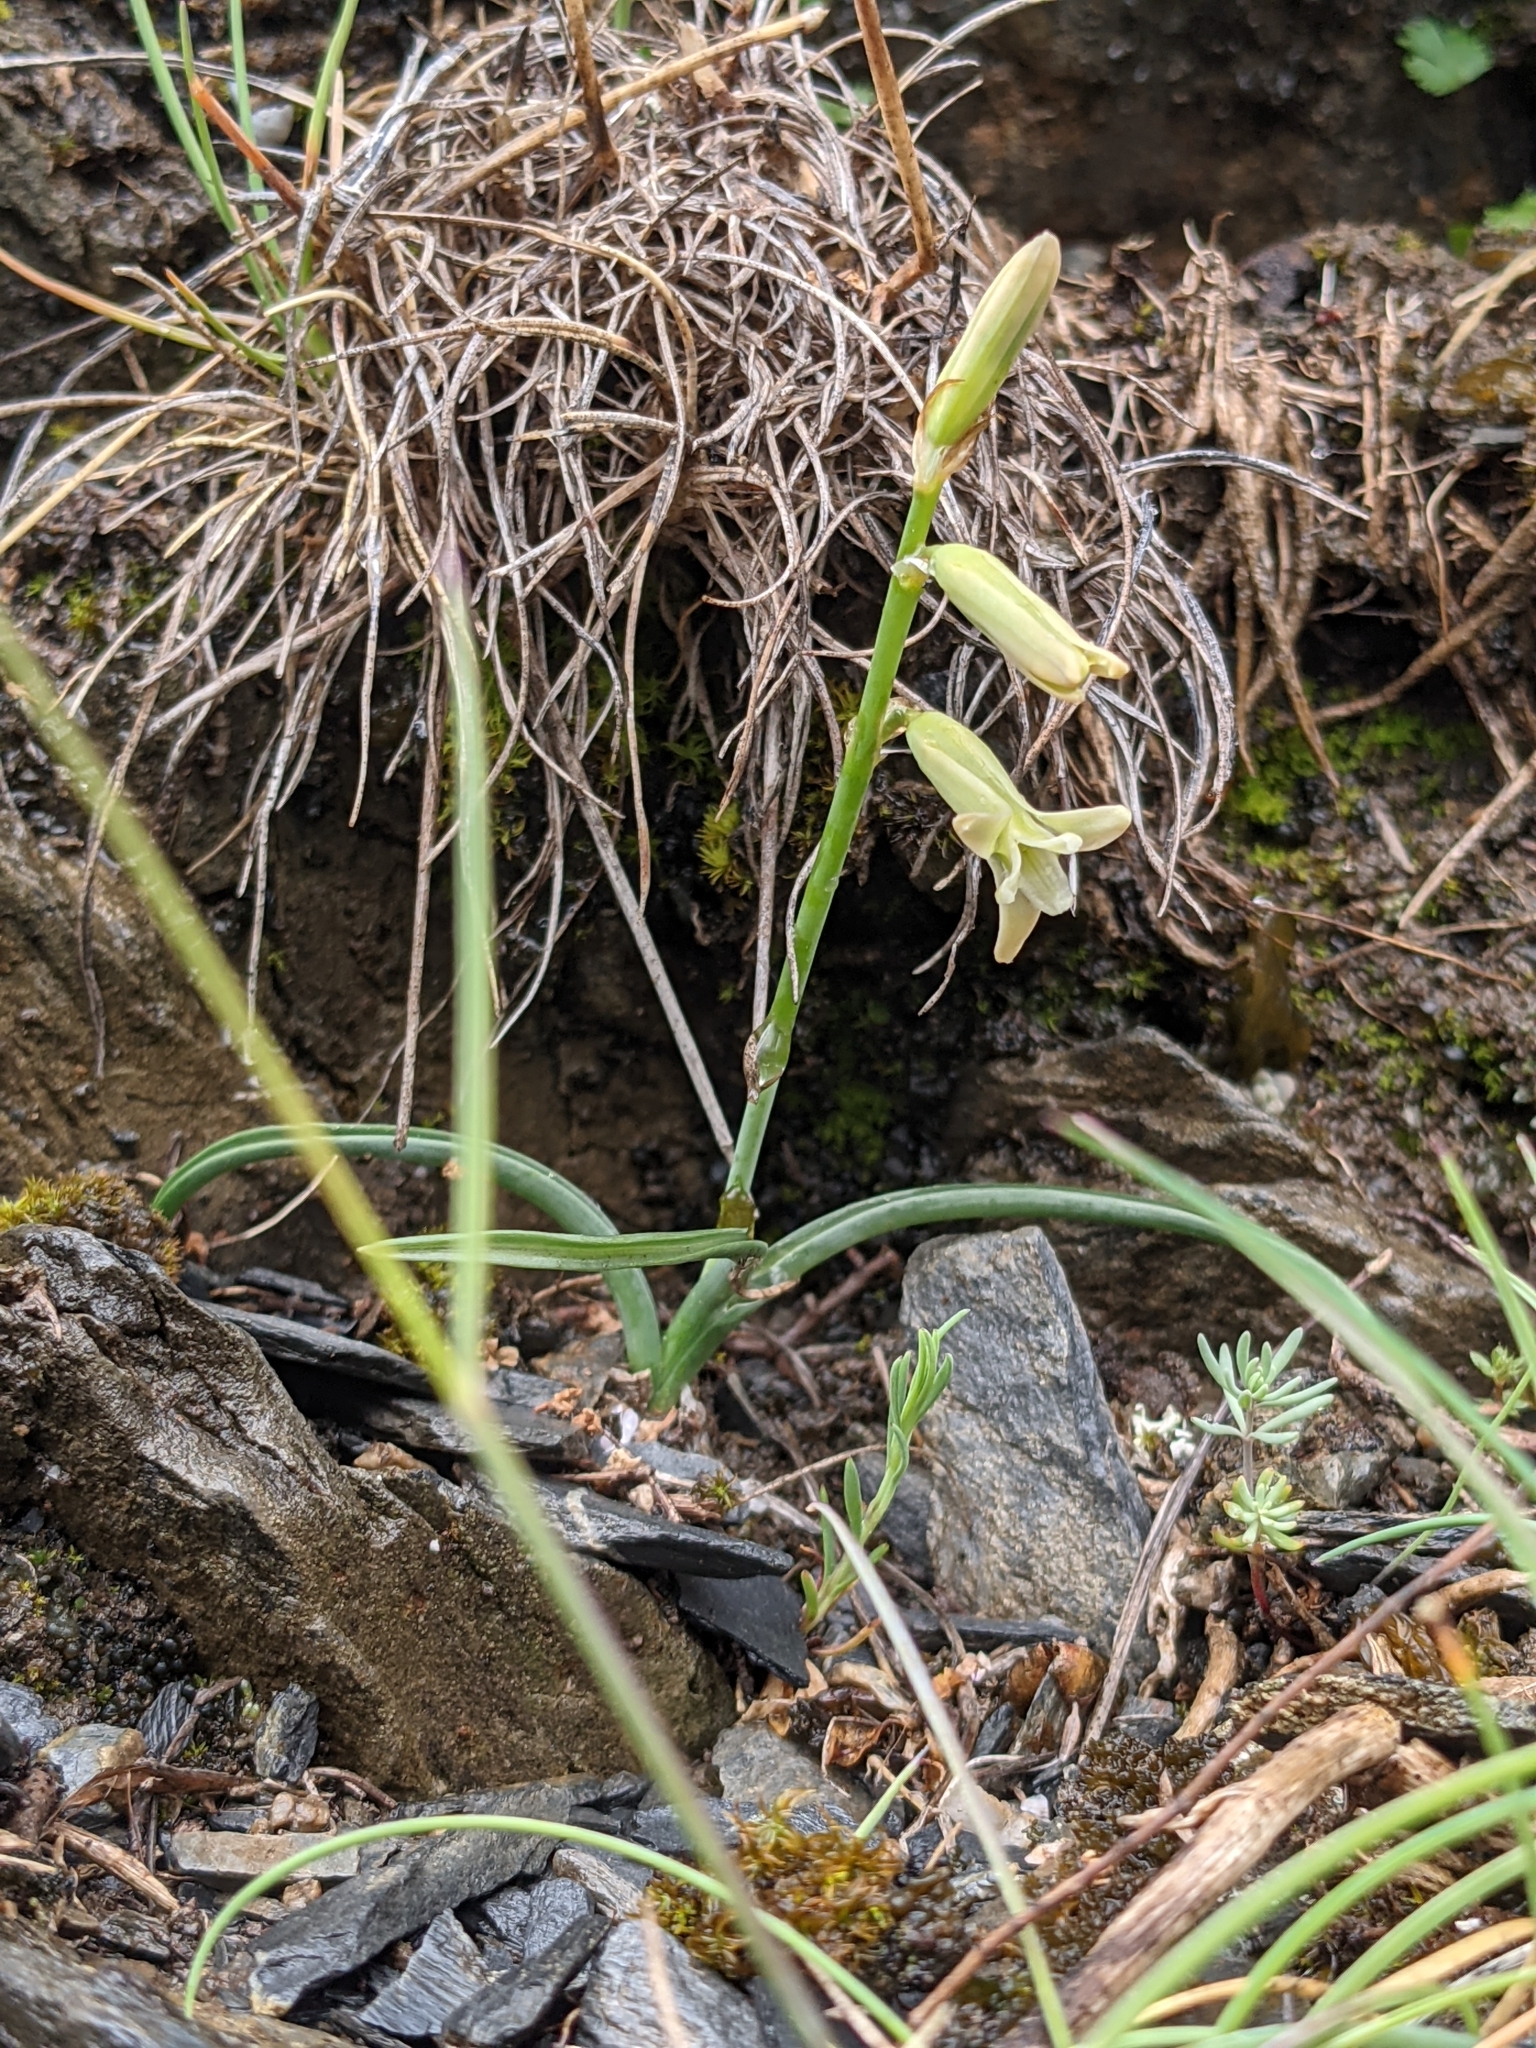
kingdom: Plantae
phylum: Tracheophyta
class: Liliopsida
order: Asparagales
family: Asparagaceae
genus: Dipcadi
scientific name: Dipcadi serotinum
